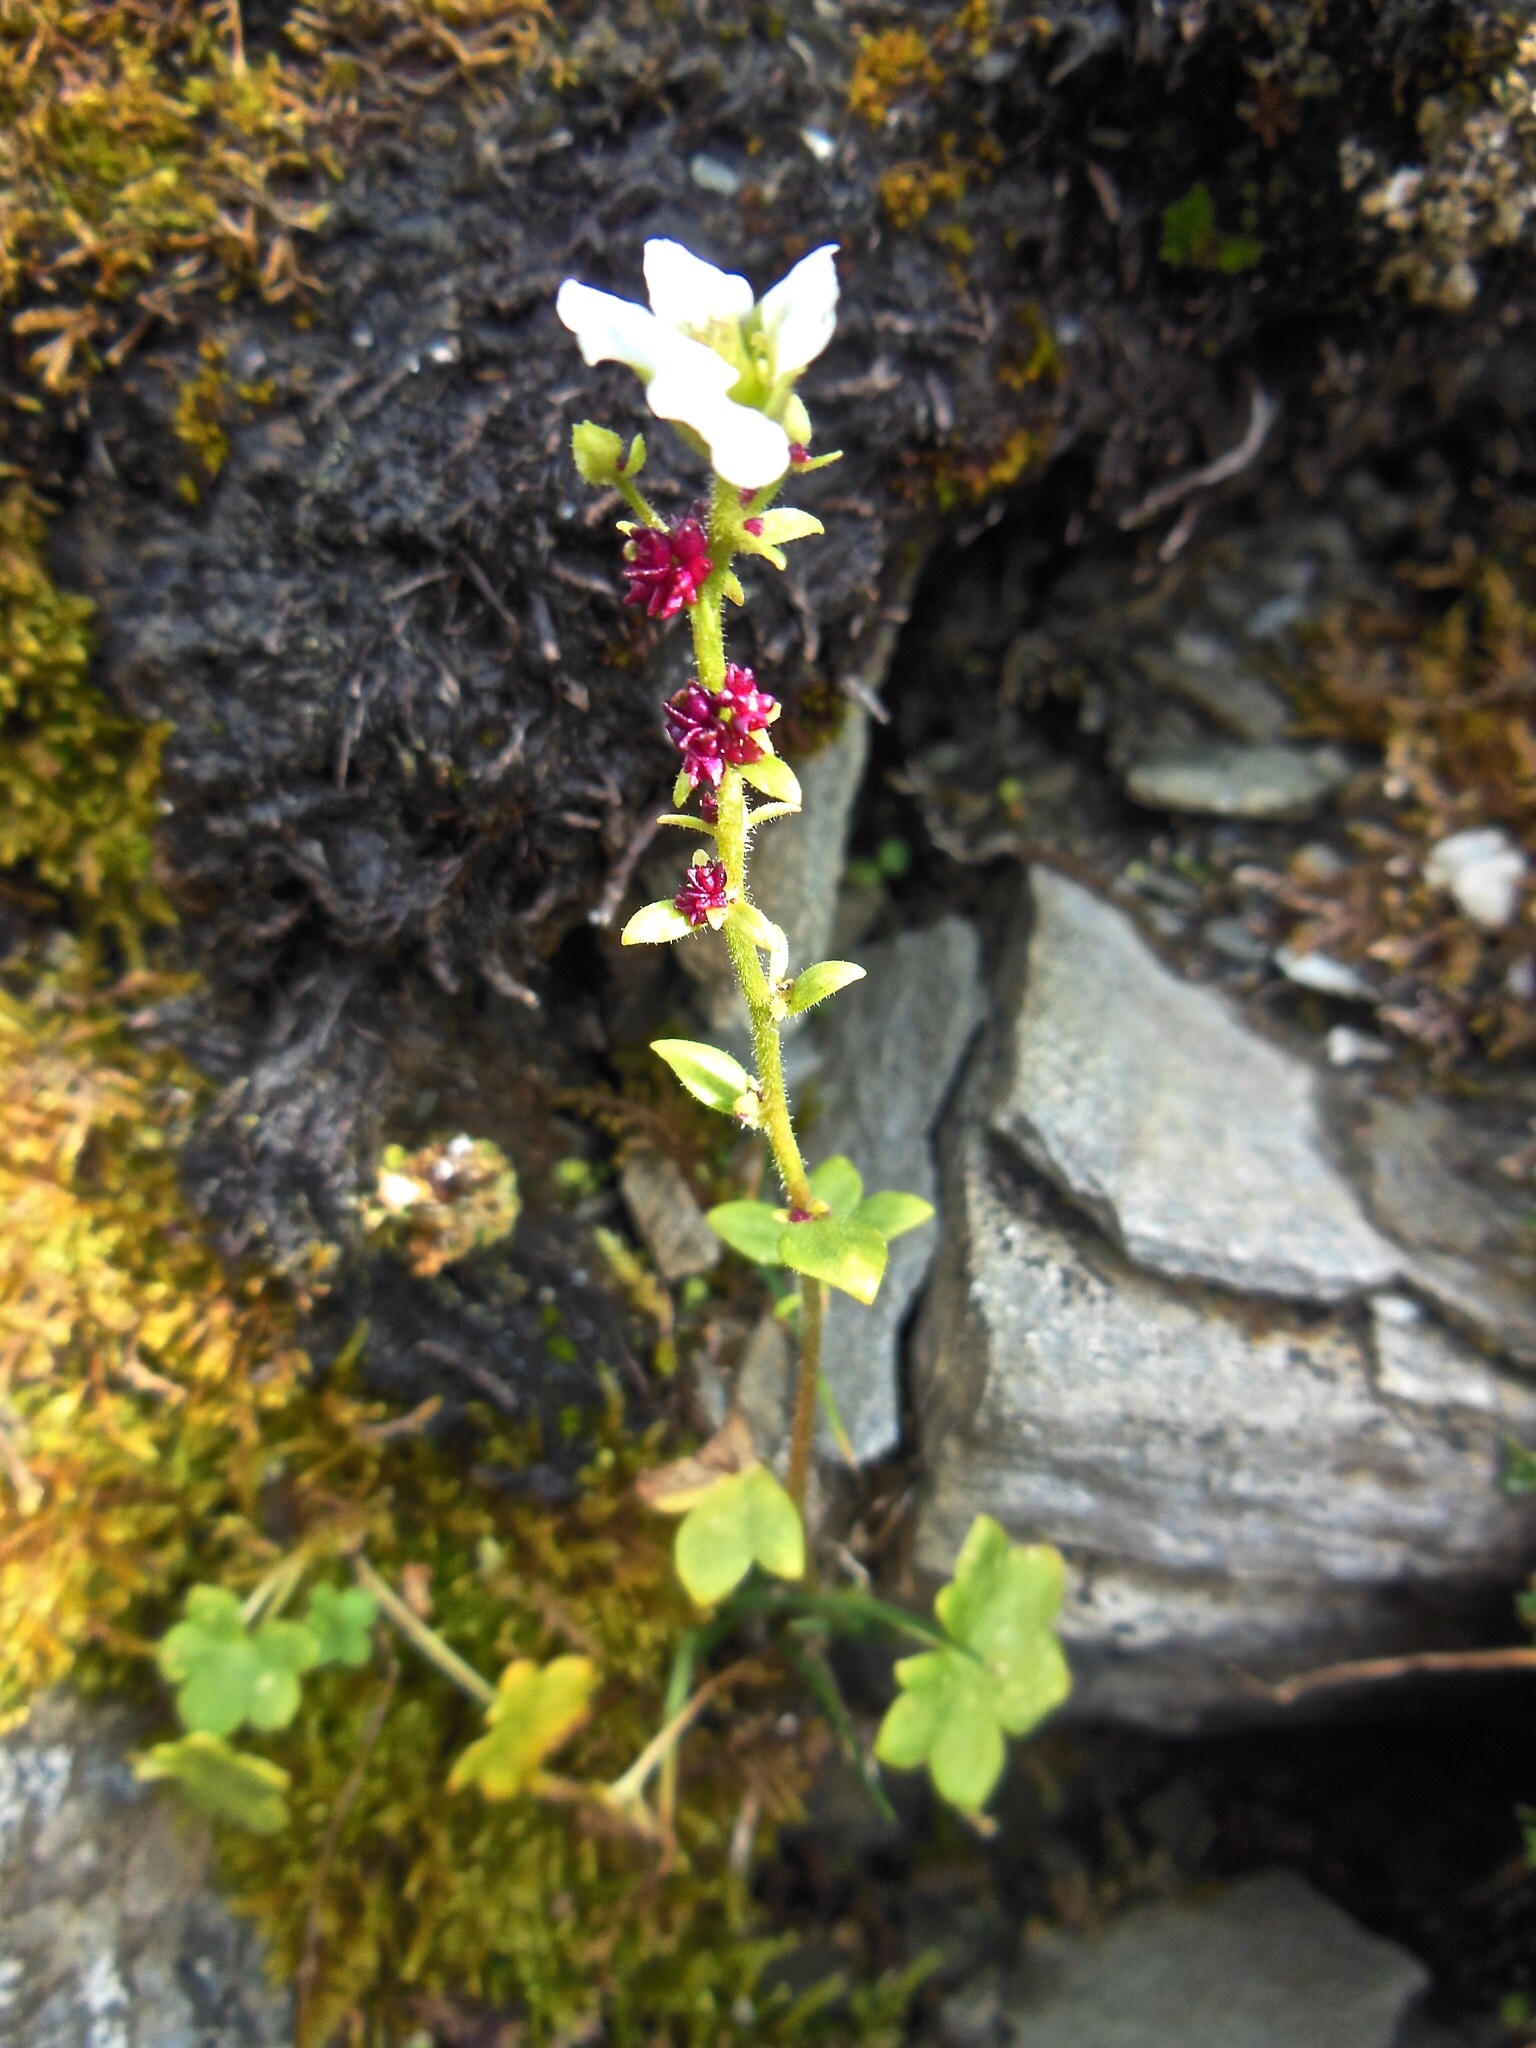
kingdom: Plantae
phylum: Tracheophyta
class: Magnoliopsida
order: Saxifragales
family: Saxifragaceae
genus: Saxifraga
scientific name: Saxifraga cernua
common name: Drooping saxifrage
